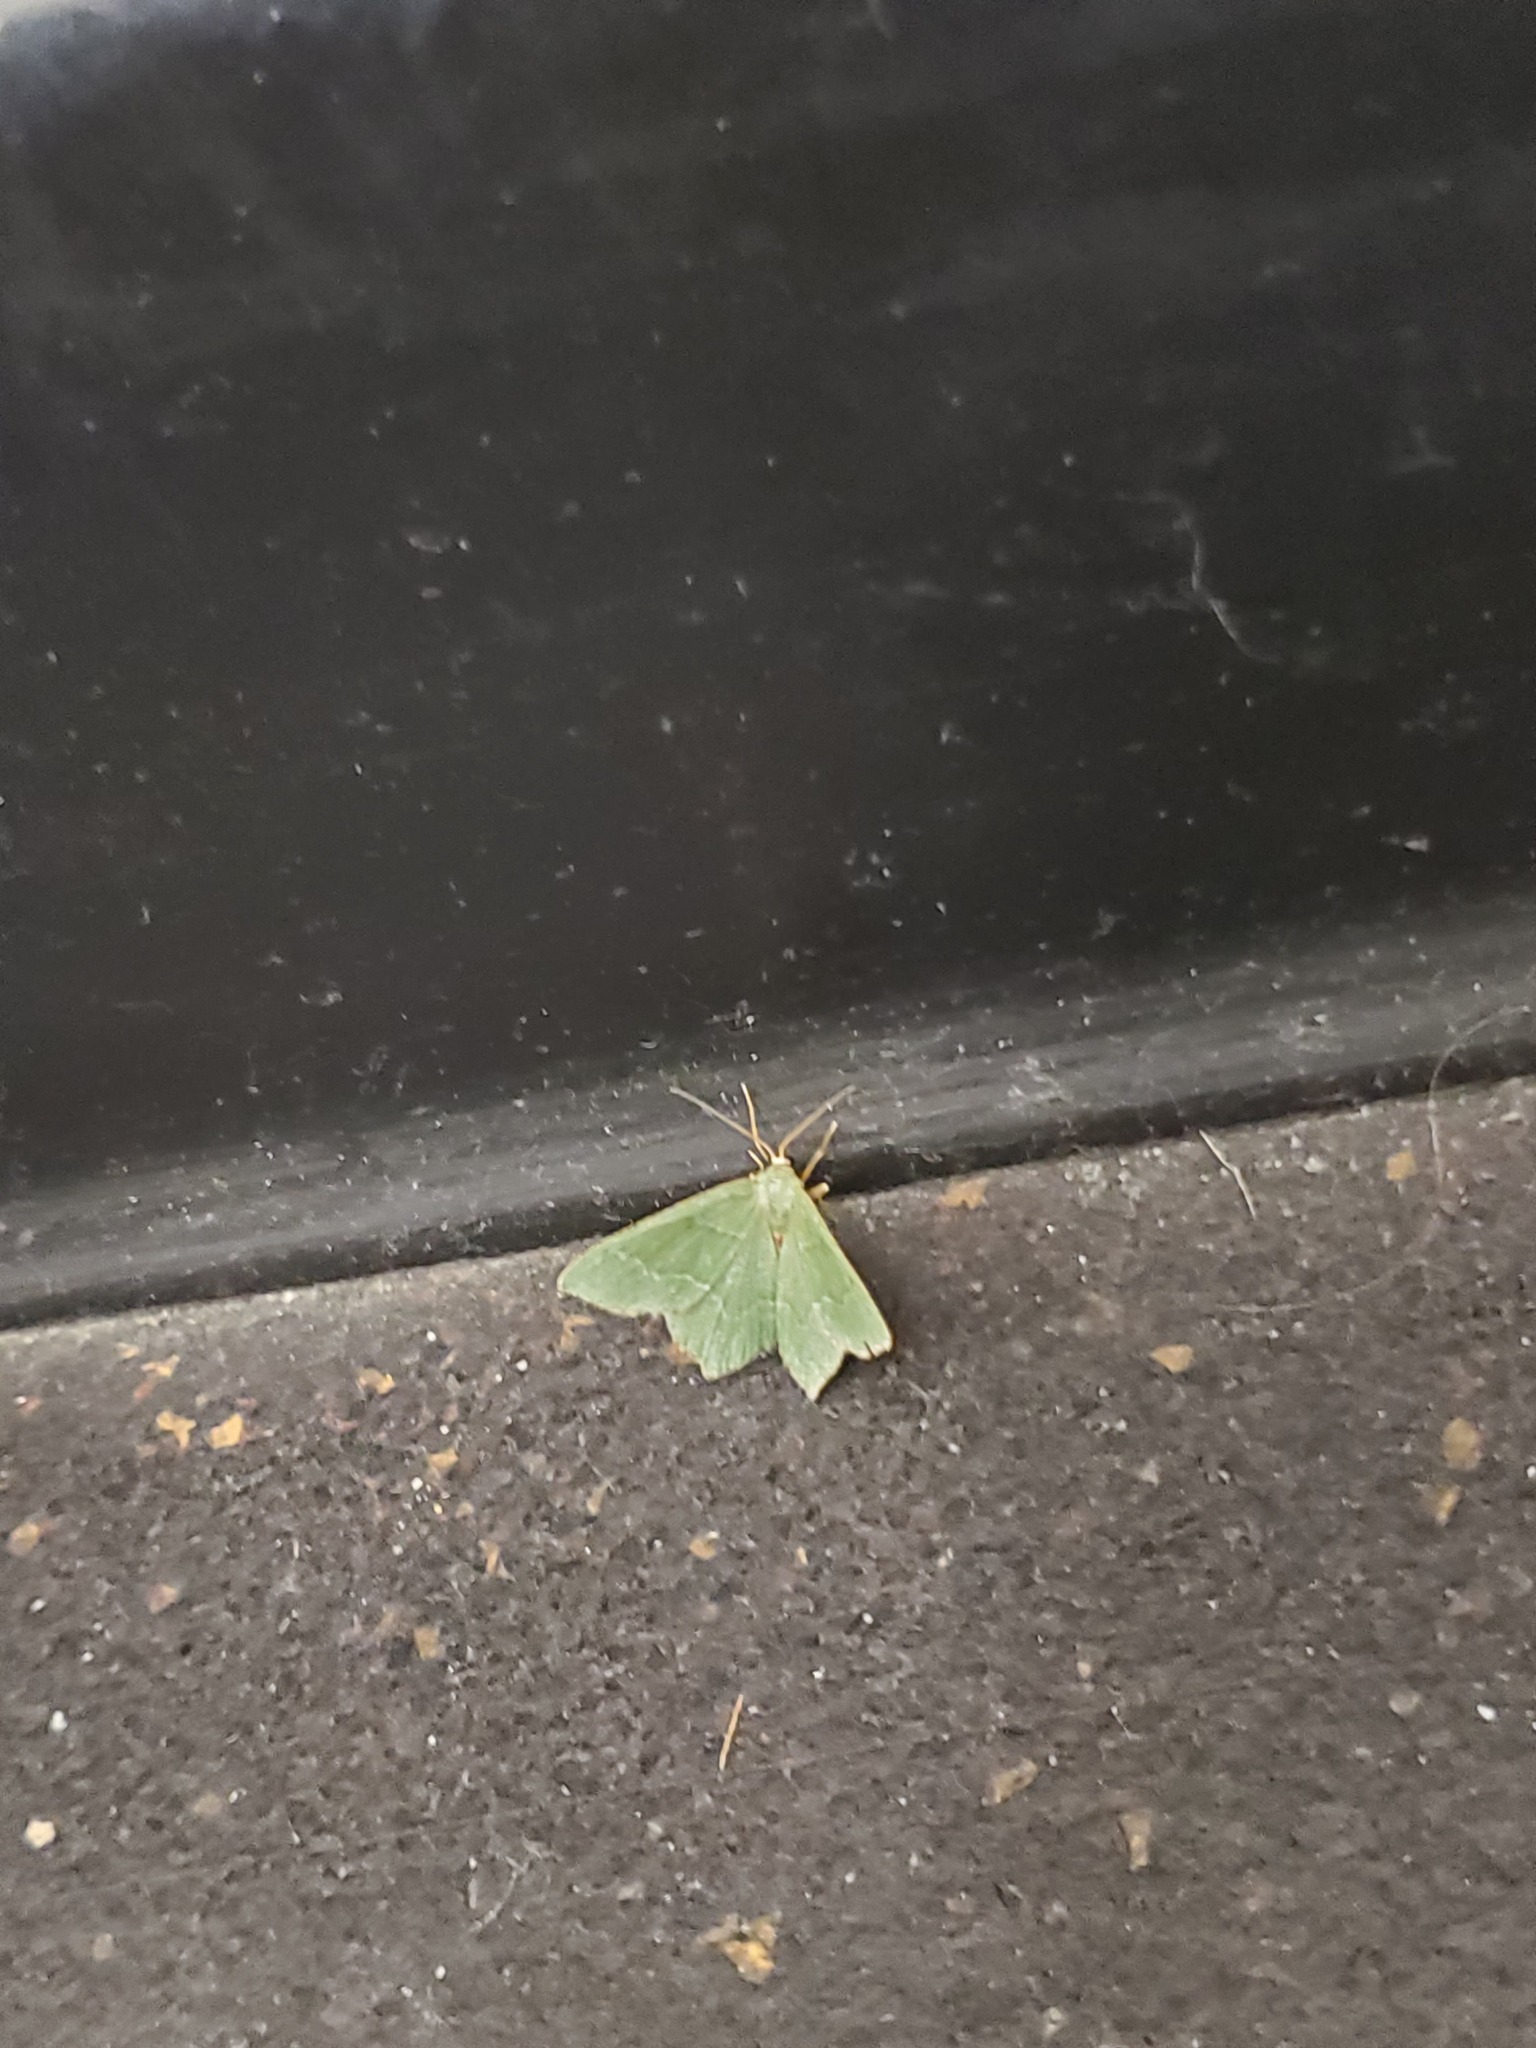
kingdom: Animalia
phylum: Arthropoda
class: Insecta
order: Lepidoptera
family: Geometridae
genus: Hemithea
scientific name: Hemithea aestivaria
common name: Common emerald
